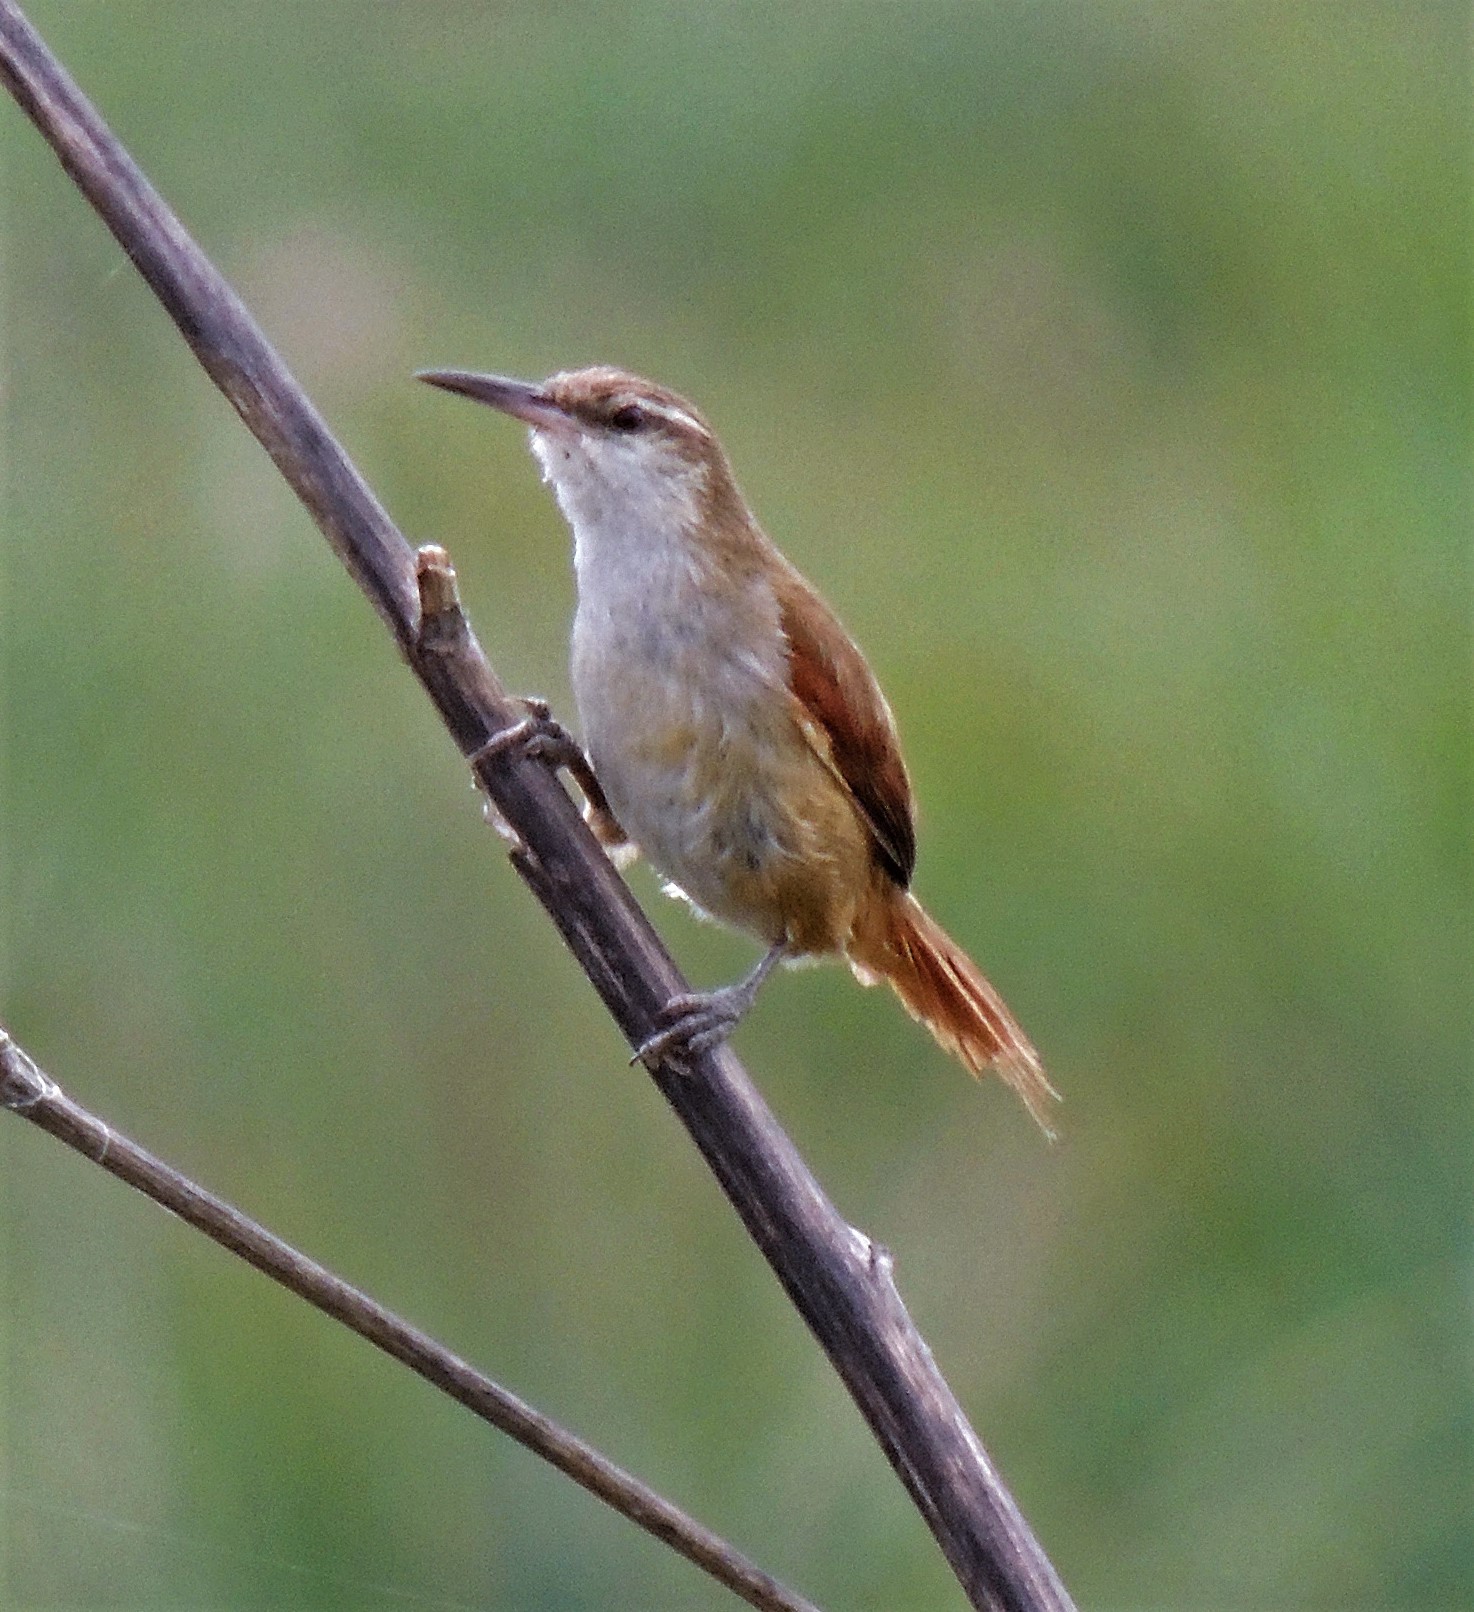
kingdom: Animalia
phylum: Chordata
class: Aves
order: Passeriformes
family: Furnariidae
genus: Limnornis
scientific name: Limnornis rectirostris
